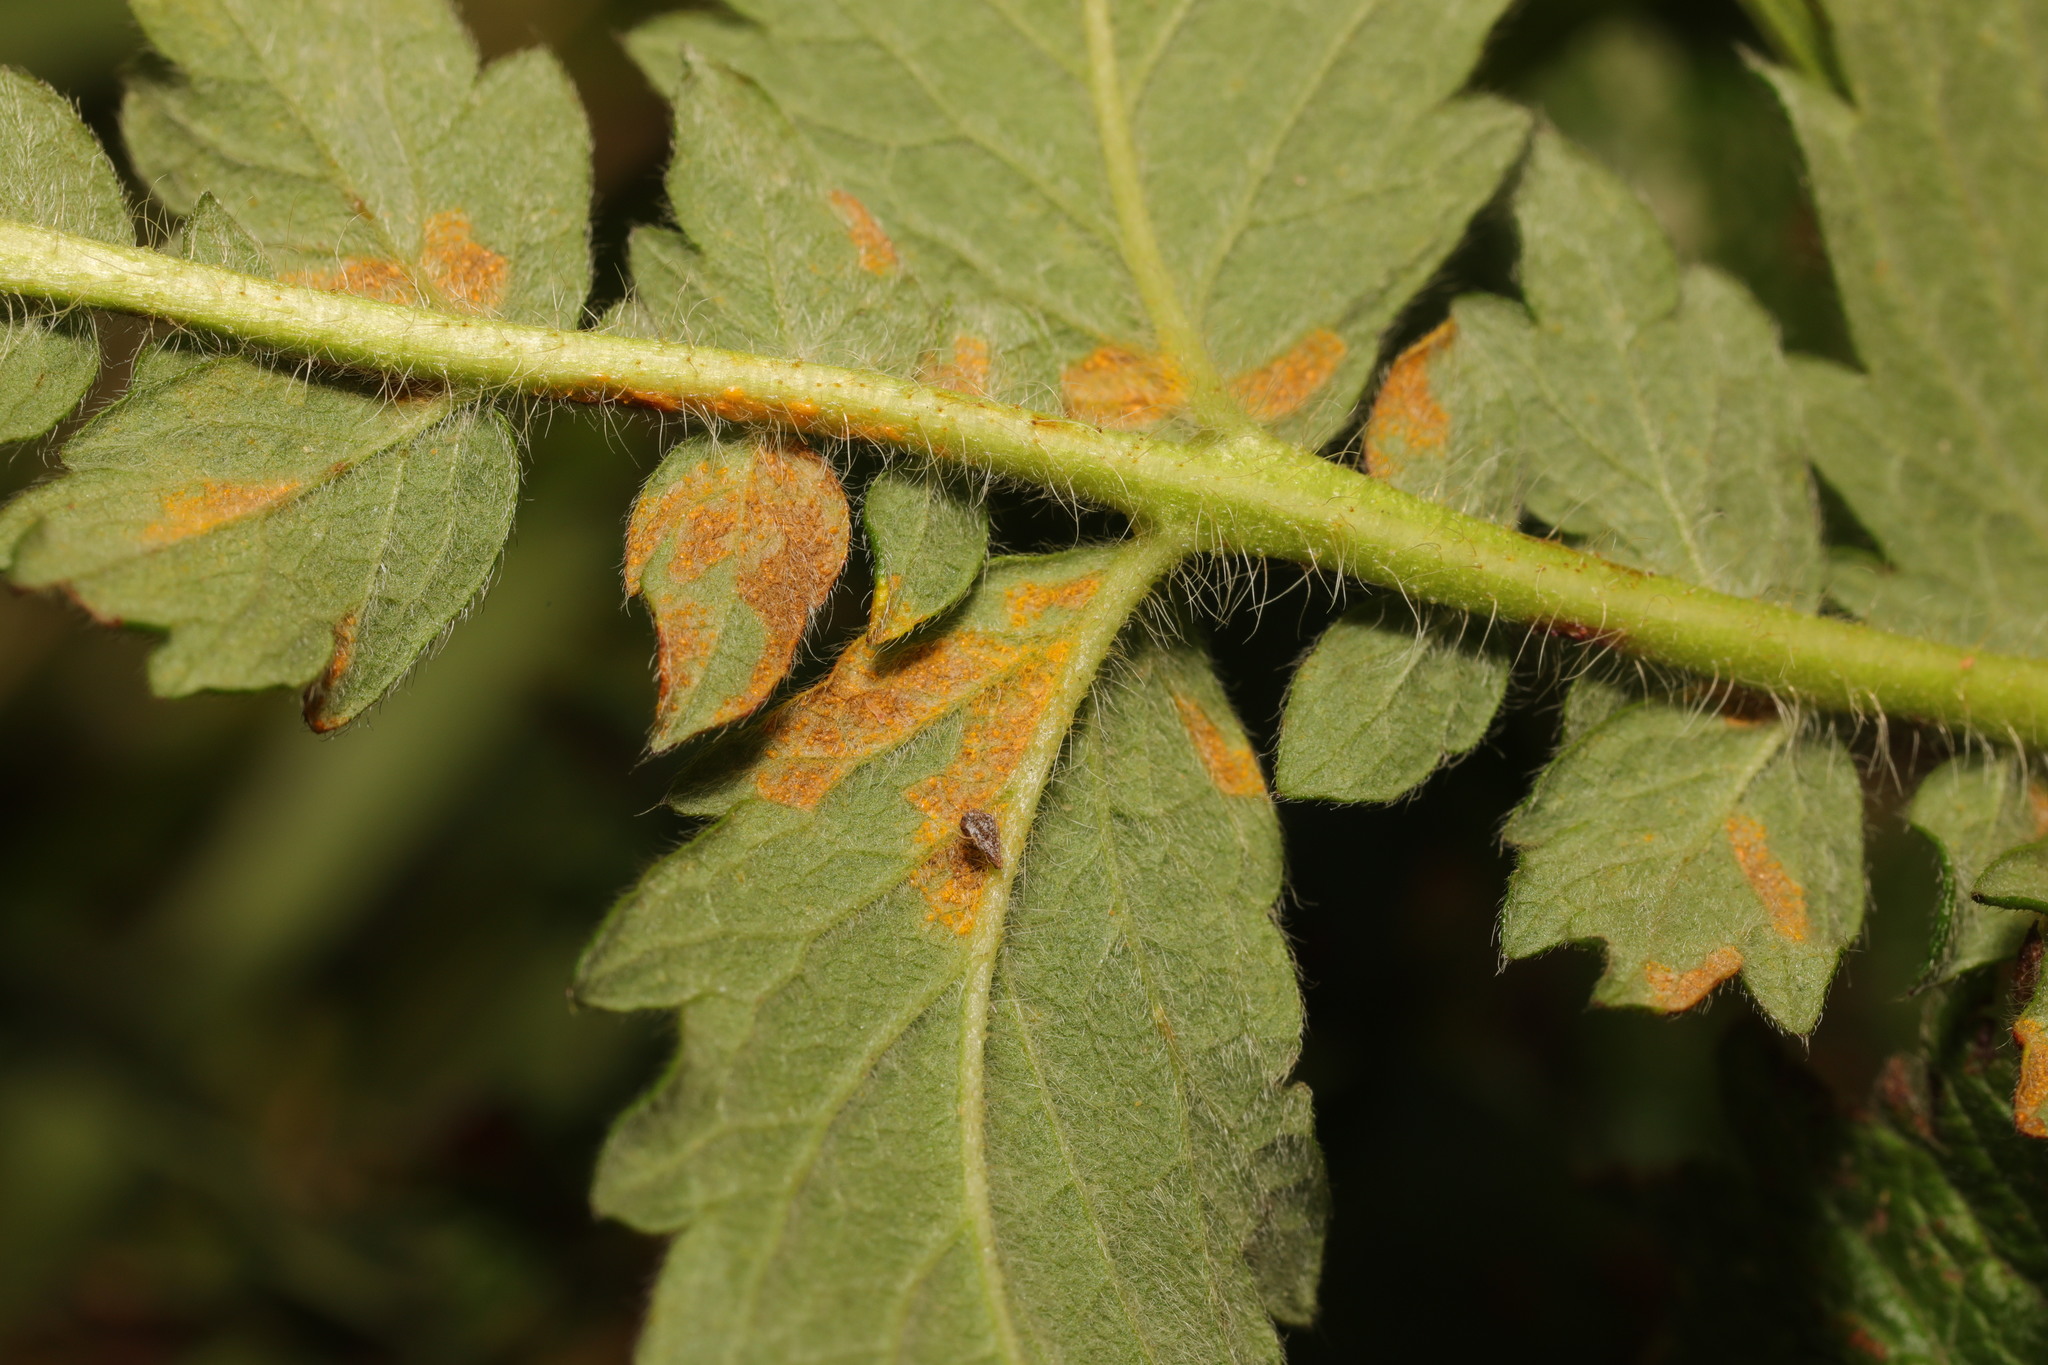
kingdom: Fungi
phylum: Basidiomycota
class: Pucciniomycetes
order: Pucciniales
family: Cronartiaceae
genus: Quasipucciniastrum
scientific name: Quasipucciniastrum ochraceum
